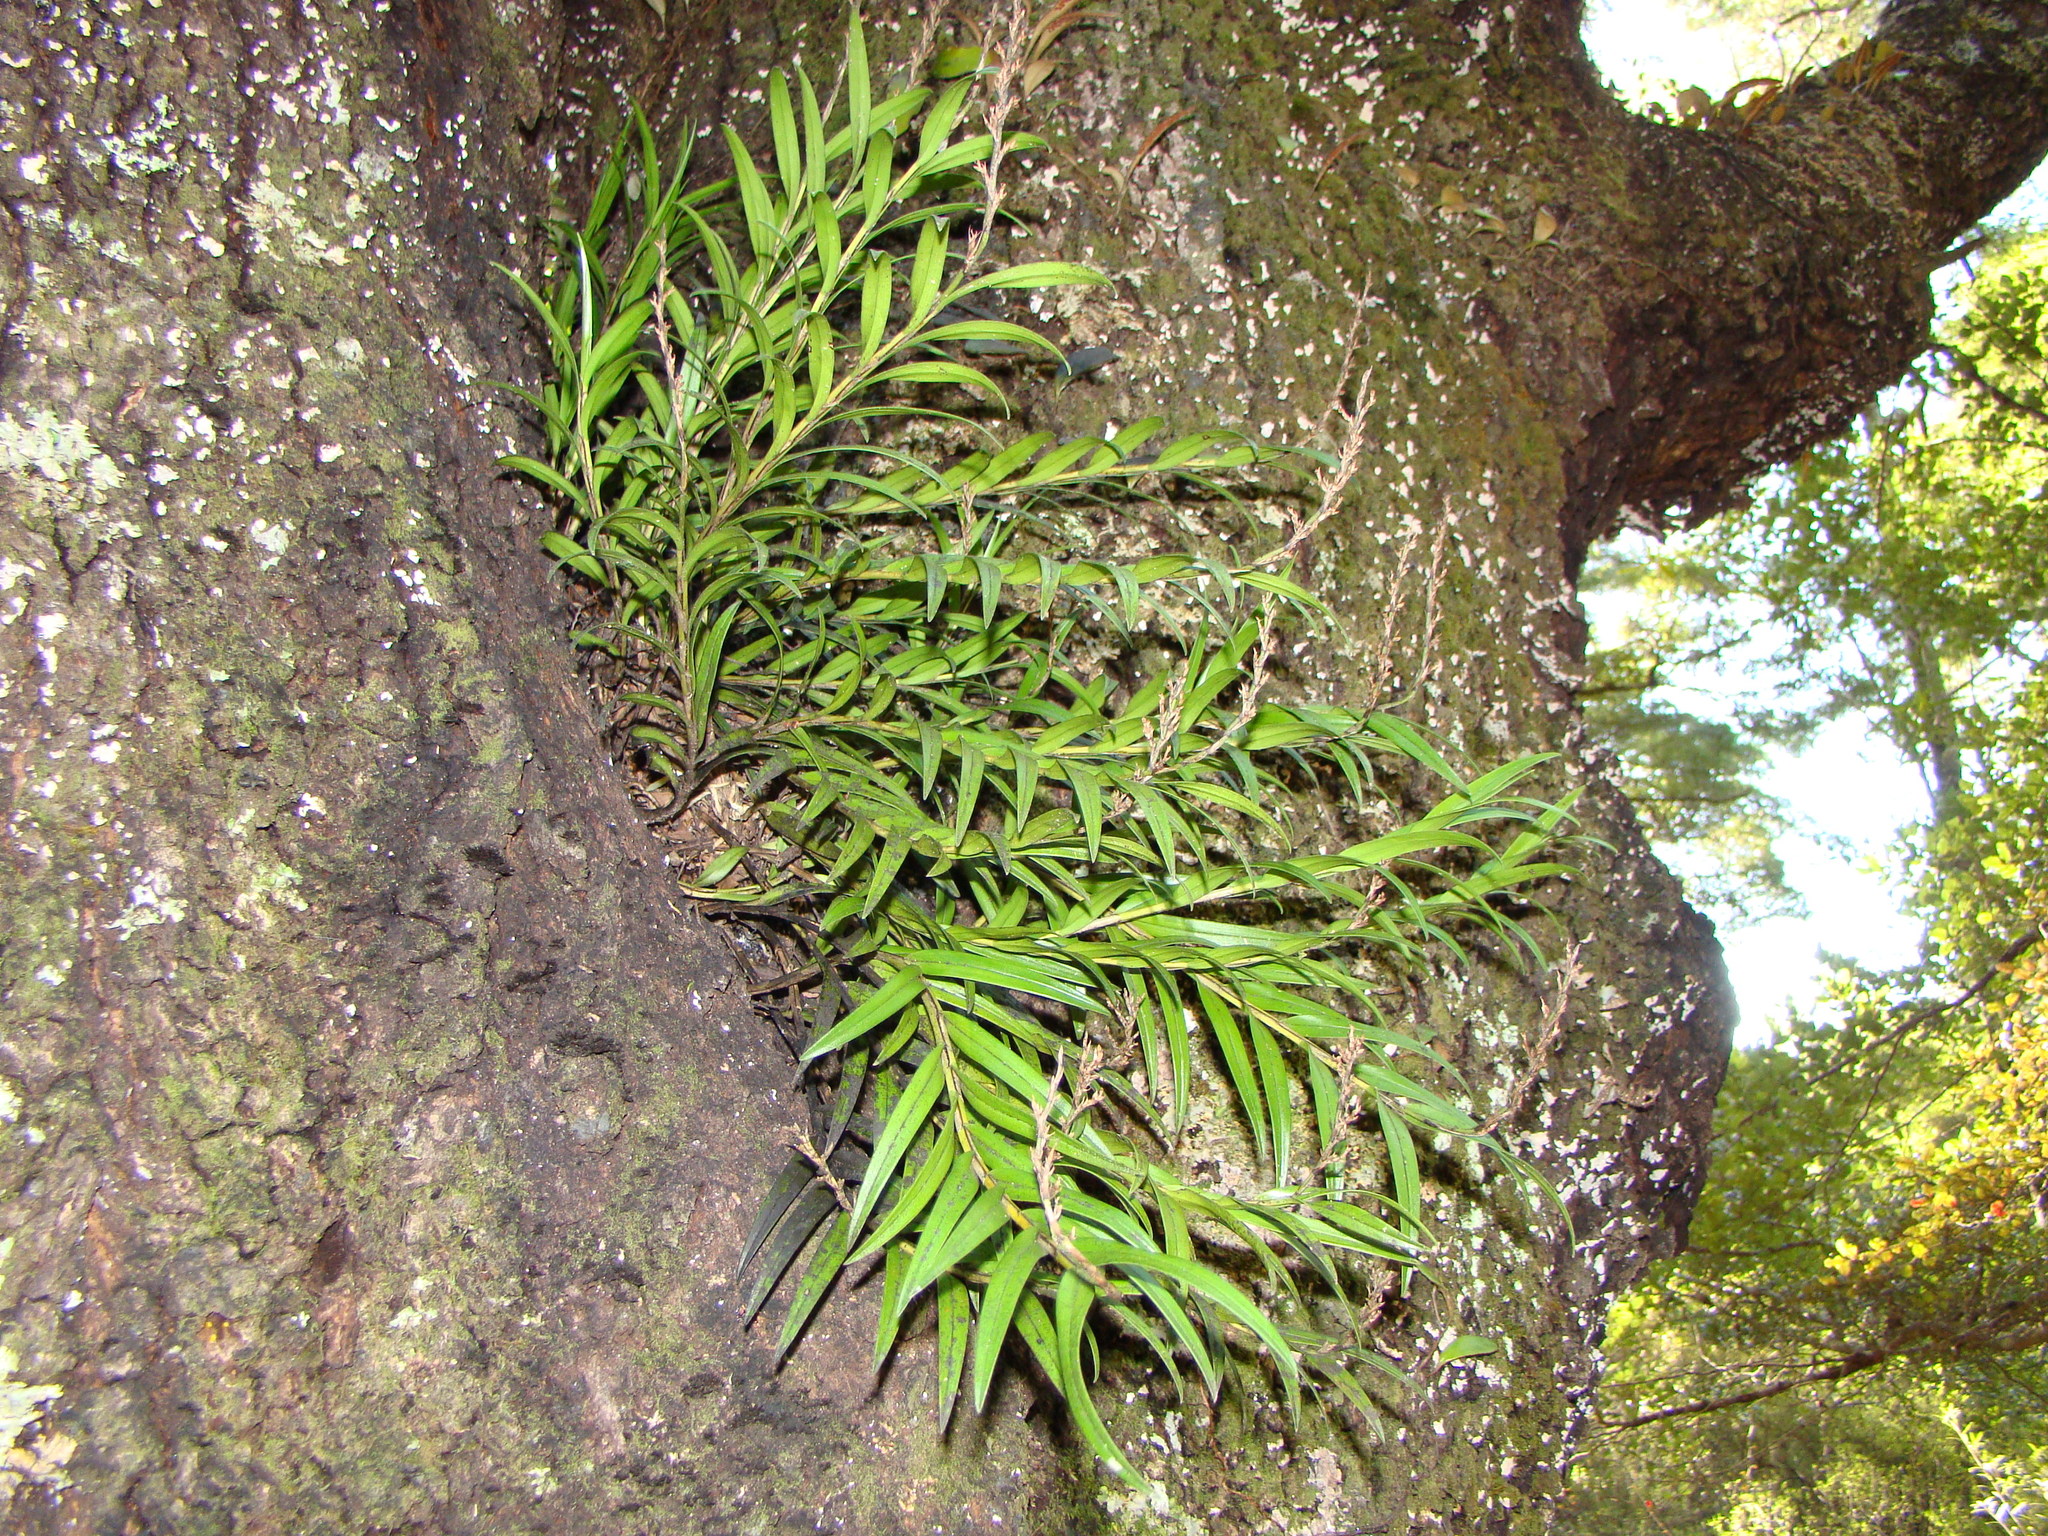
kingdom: Plantae
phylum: Tracheophyta
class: Liliopsida
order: Asparagales
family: Orchidaceae
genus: Earina
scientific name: Earina autumnalis
